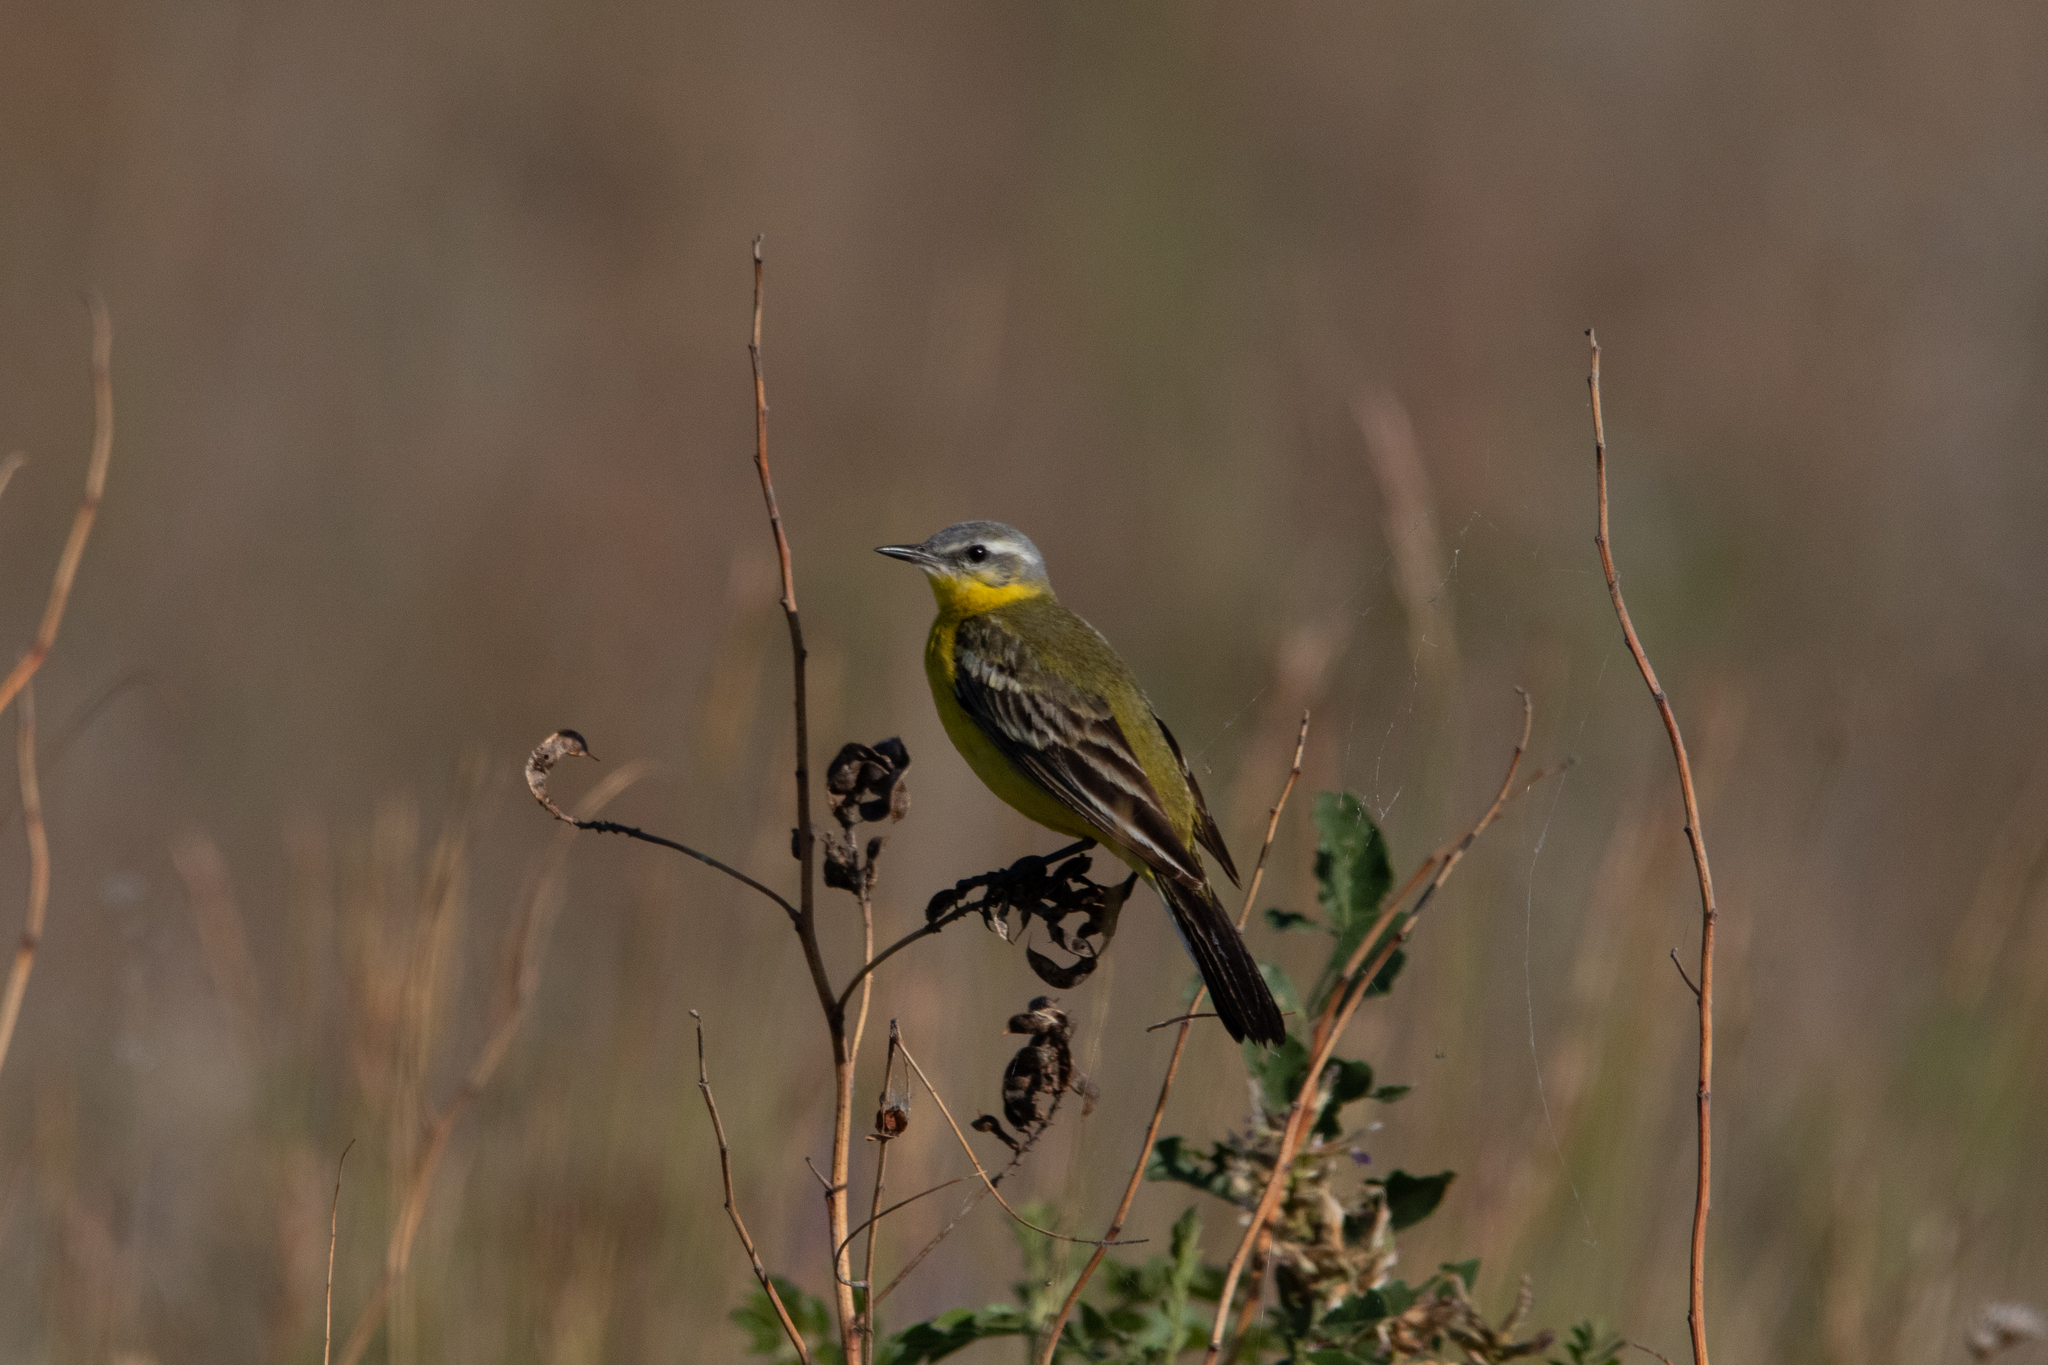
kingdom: Animalia
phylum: Chordata
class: Aves
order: Passeriformes
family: Motacillidae
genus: Motacilla
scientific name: Motacilla flava
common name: Western yellow wagtail
